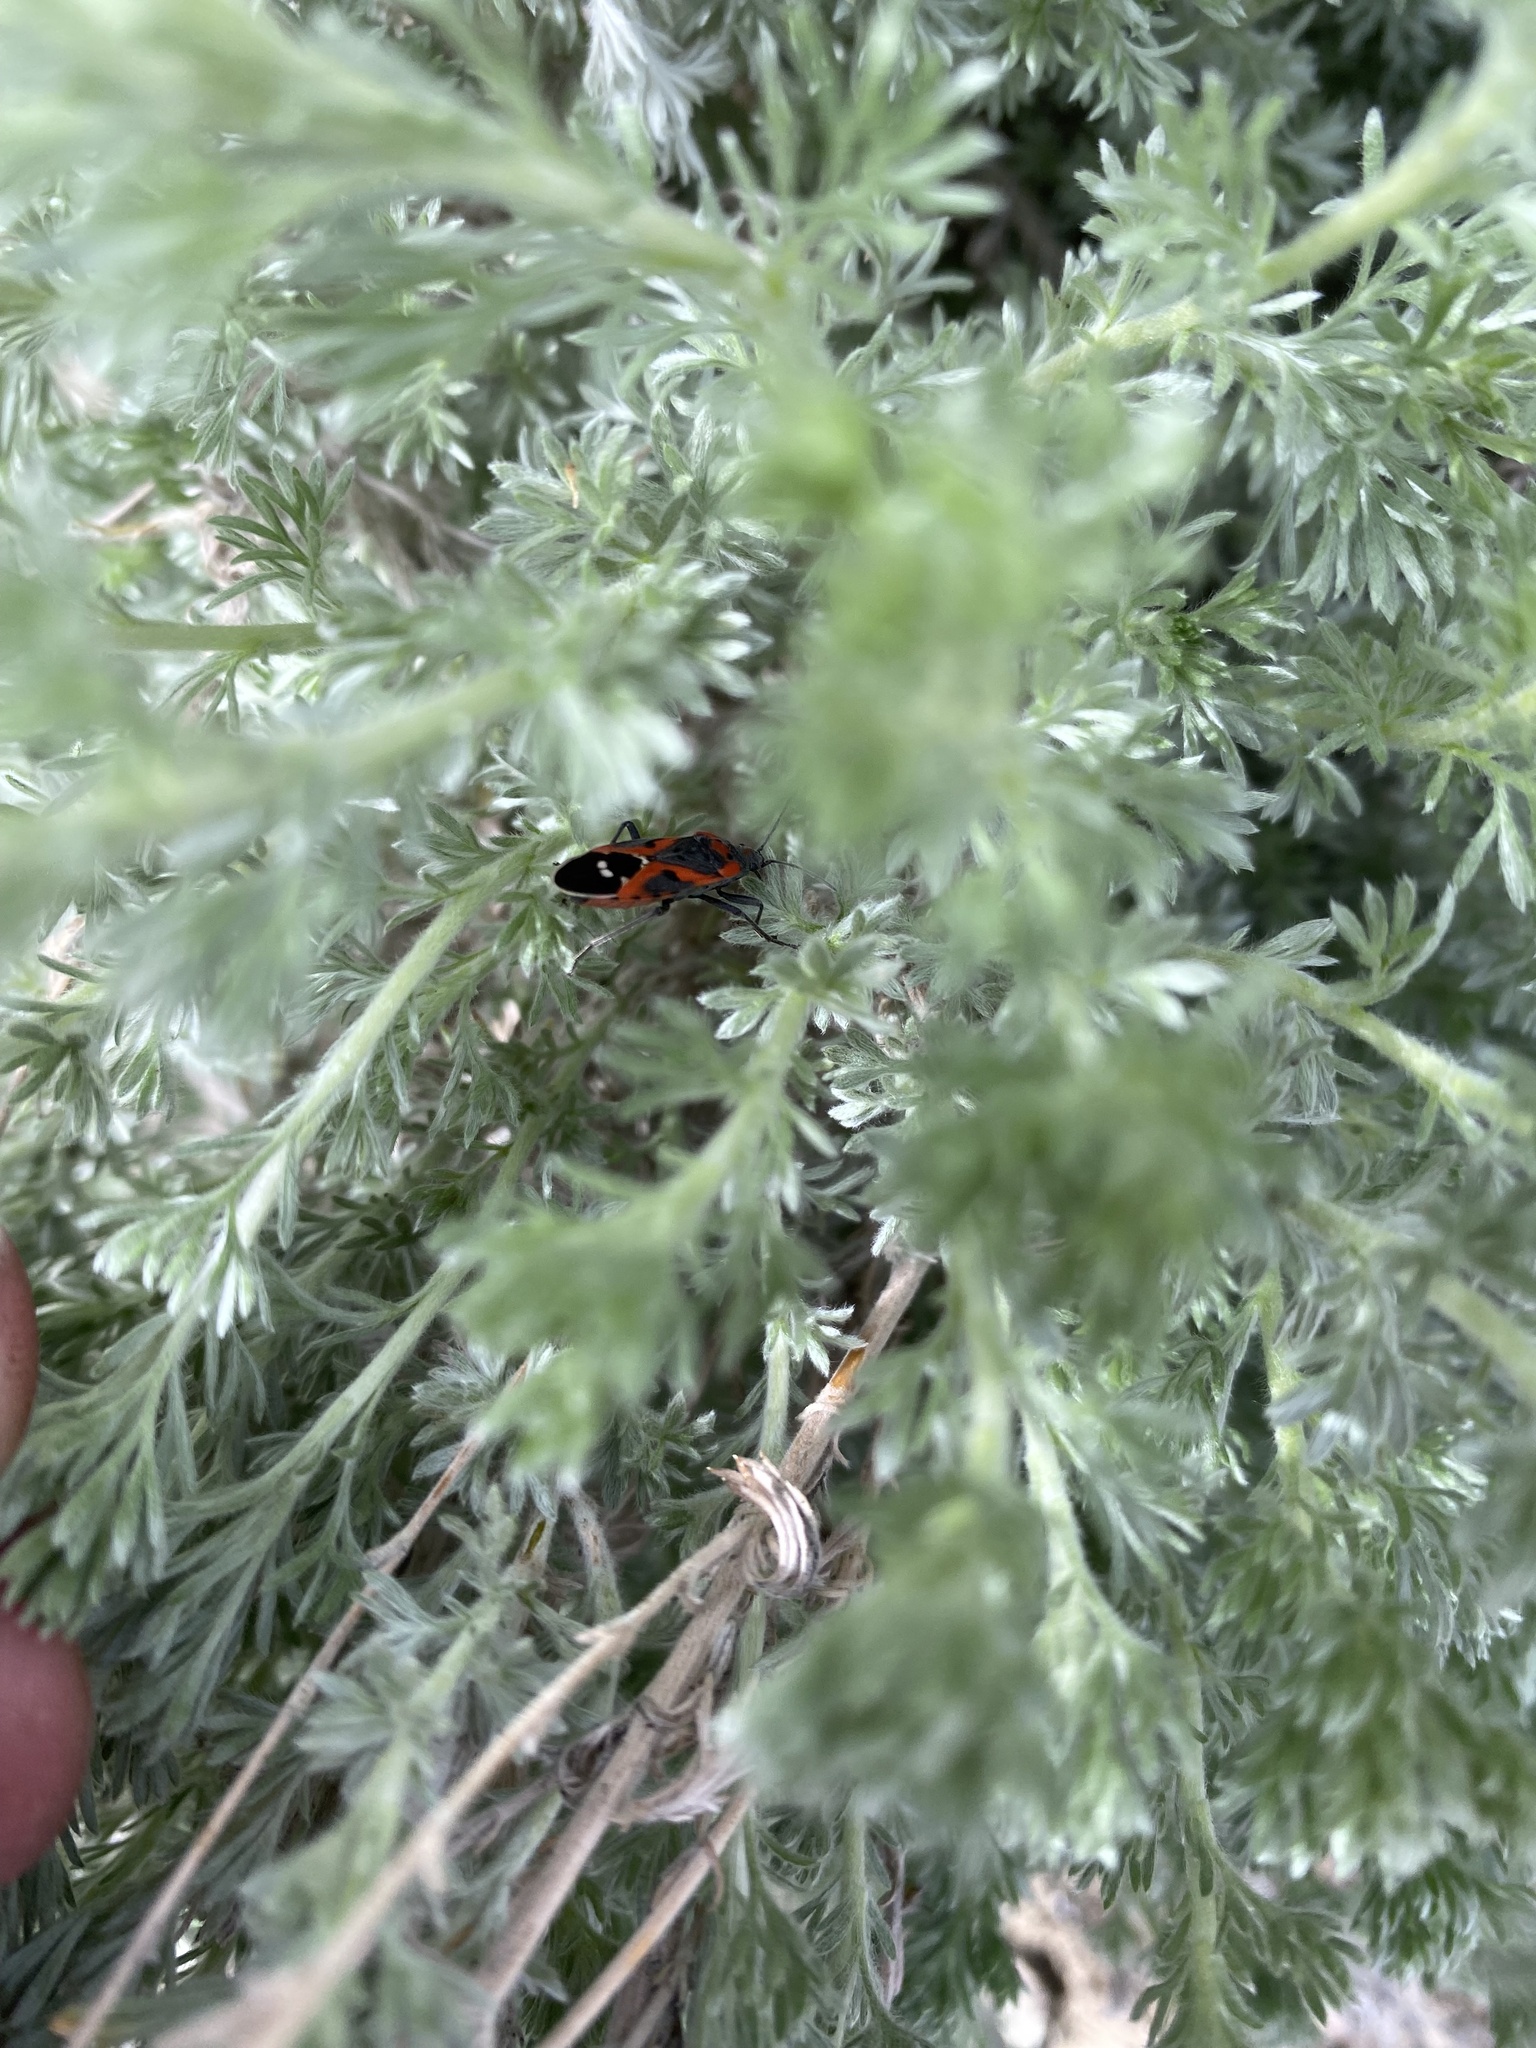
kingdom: Animalia
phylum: Arthropoda
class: Insecta
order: Hemiptera
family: Lygaeidae
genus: Lygaeus
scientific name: Lygaeus kalmii
